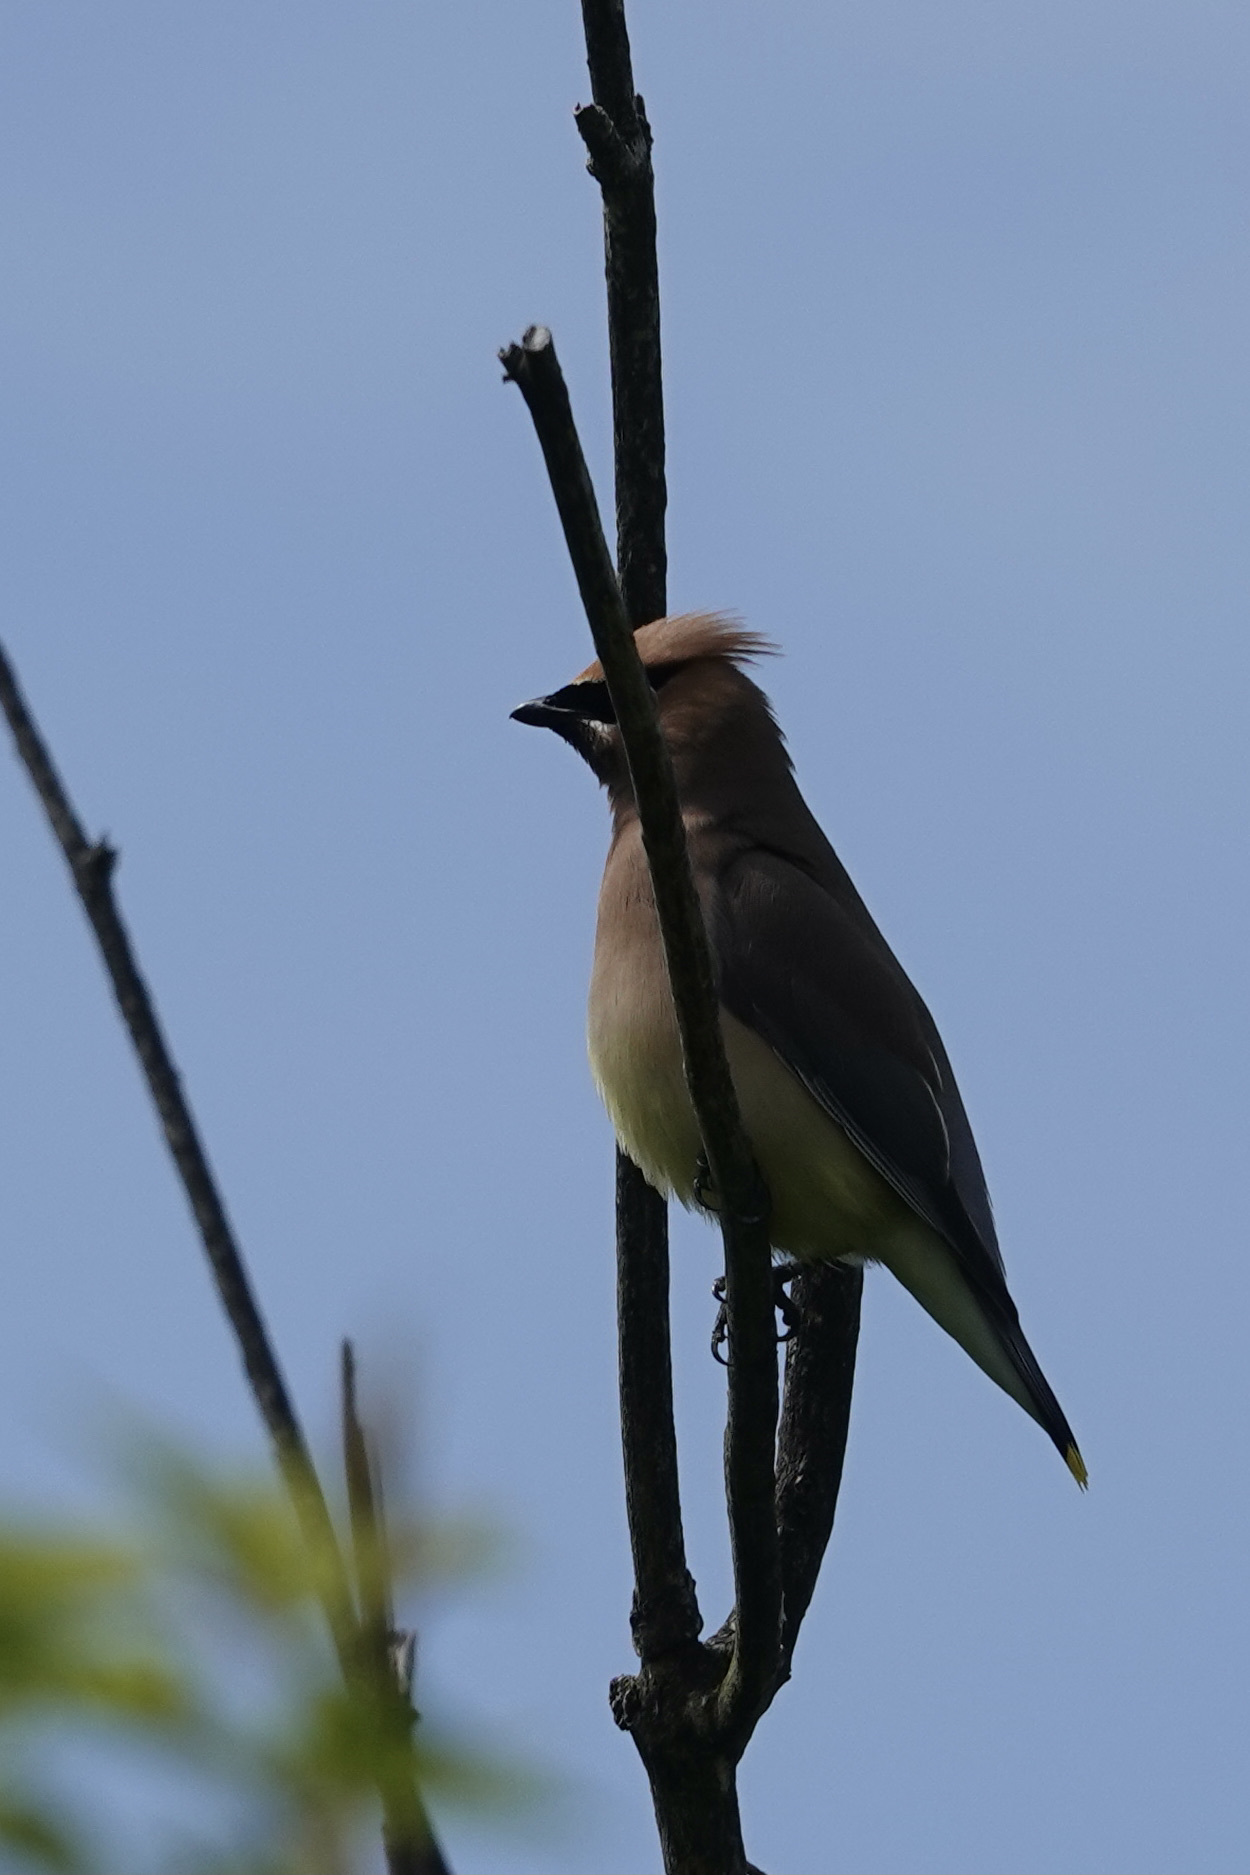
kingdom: Animalia
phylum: Chordata
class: Aves
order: Passeriformes
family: Bombycillidae
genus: Bombycilla
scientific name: Bombycilla cedrorum
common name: Cedar waxwing
